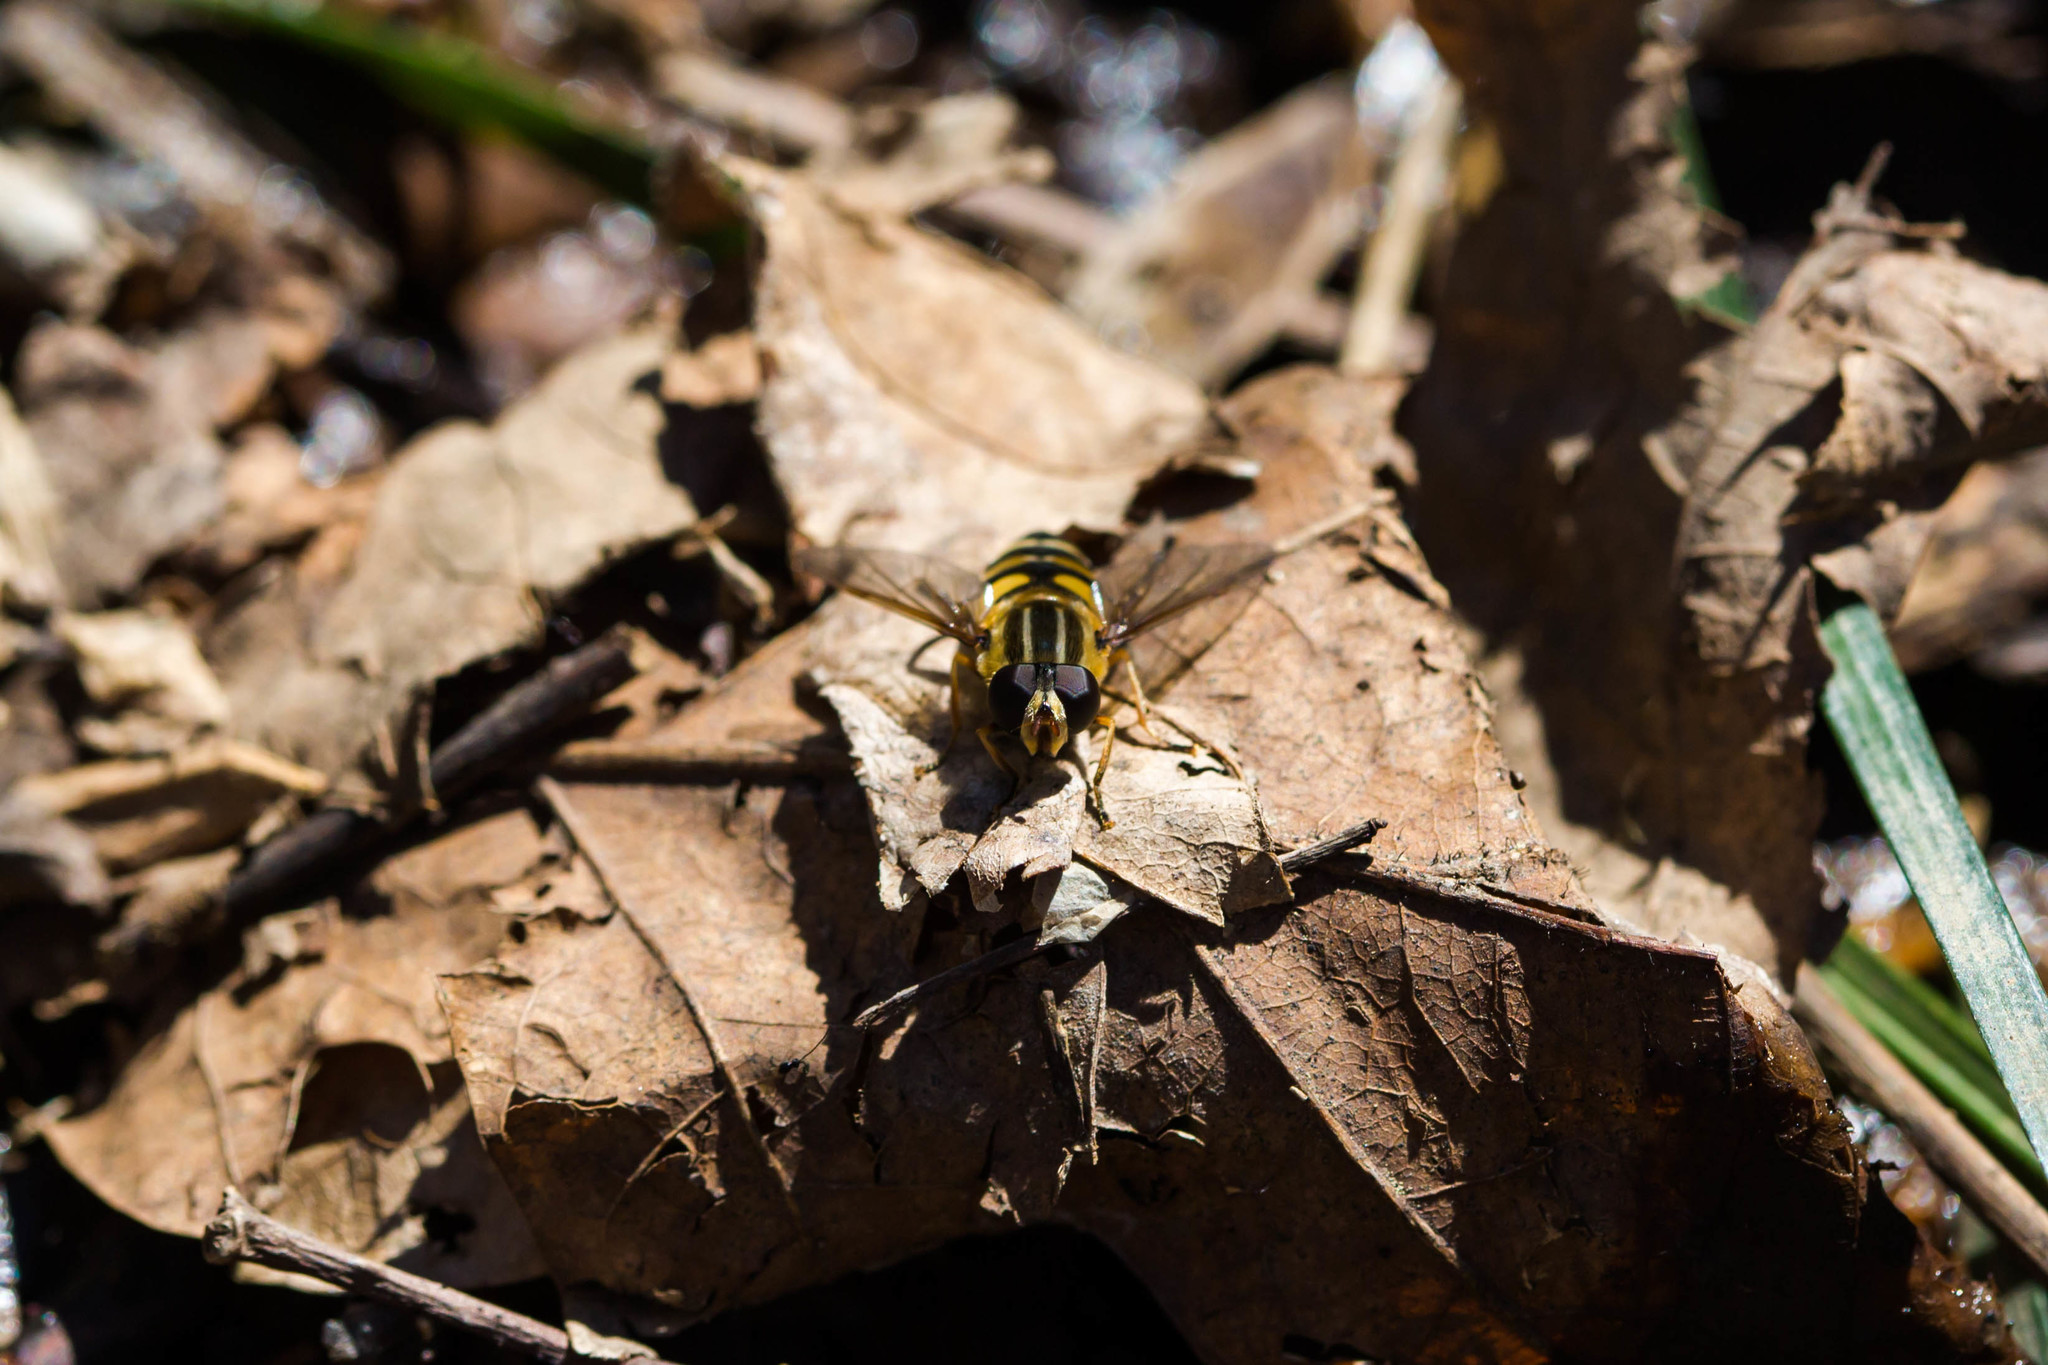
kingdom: Animalia
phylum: Arthropoda
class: Insecta
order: Diptera
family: Syrphidae
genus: Helophilus
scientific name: Helophilus fasciatus
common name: Narrow-headed marsh fly
